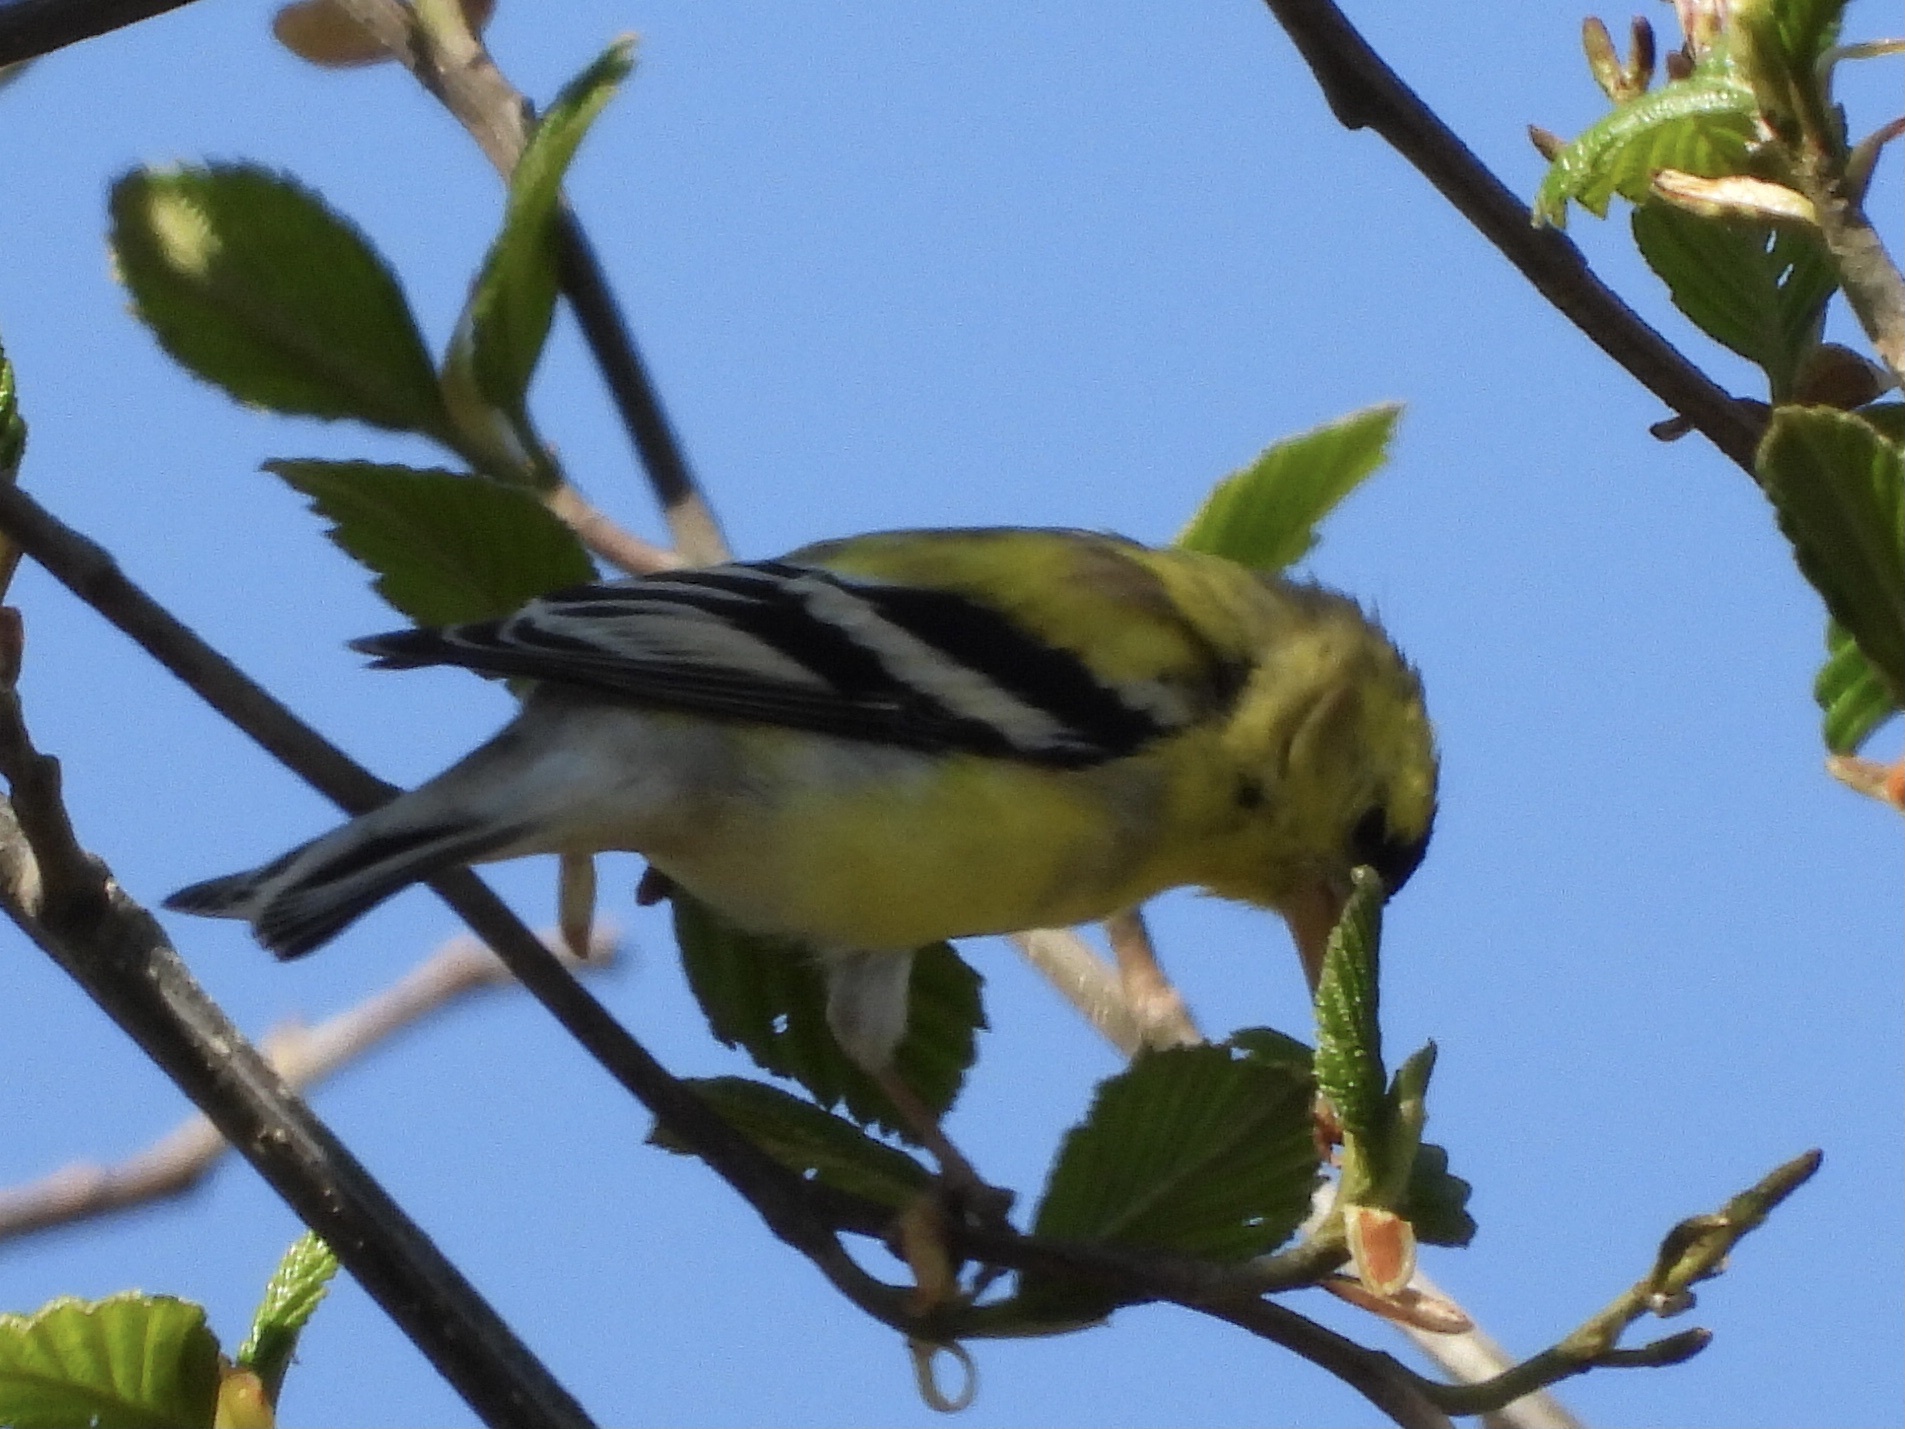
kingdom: Animalia
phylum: Chordata
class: Aves
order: Passeriformes
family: Fringillidae
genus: Spinus
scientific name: Spinus tristis
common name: American goldfinch
